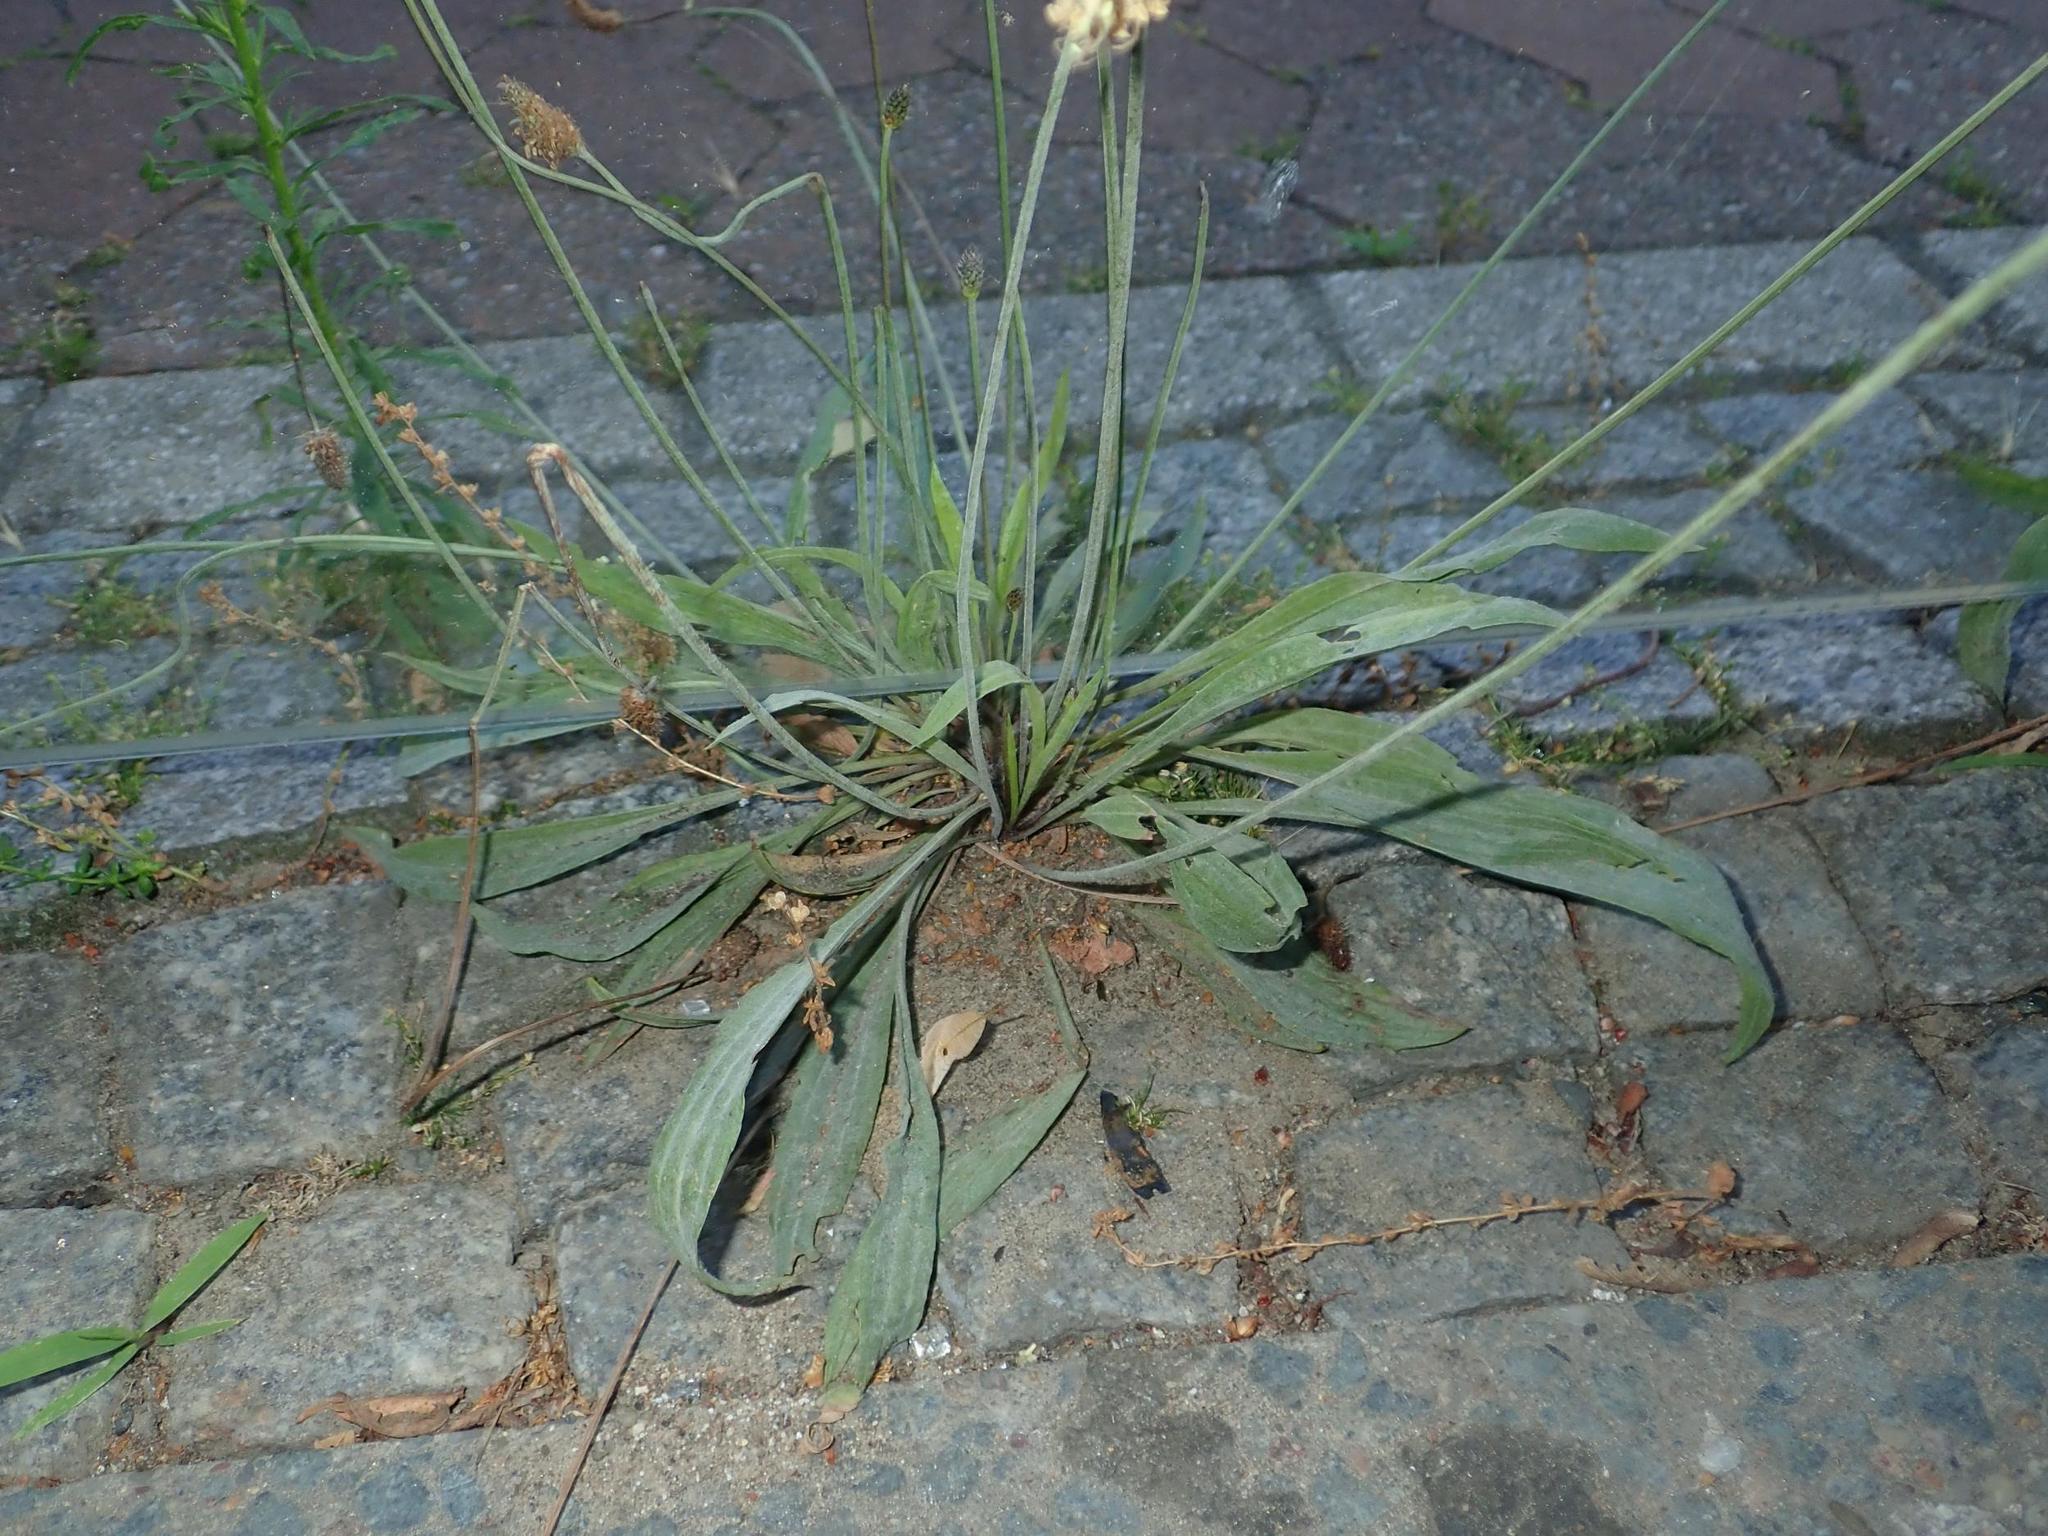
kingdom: Plantae
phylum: Tracheophyta
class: Magnoliopsida
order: Lamiales
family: Plantaginaceae
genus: Plantago
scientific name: Plantago lanceolata
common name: Ribwort plantain
